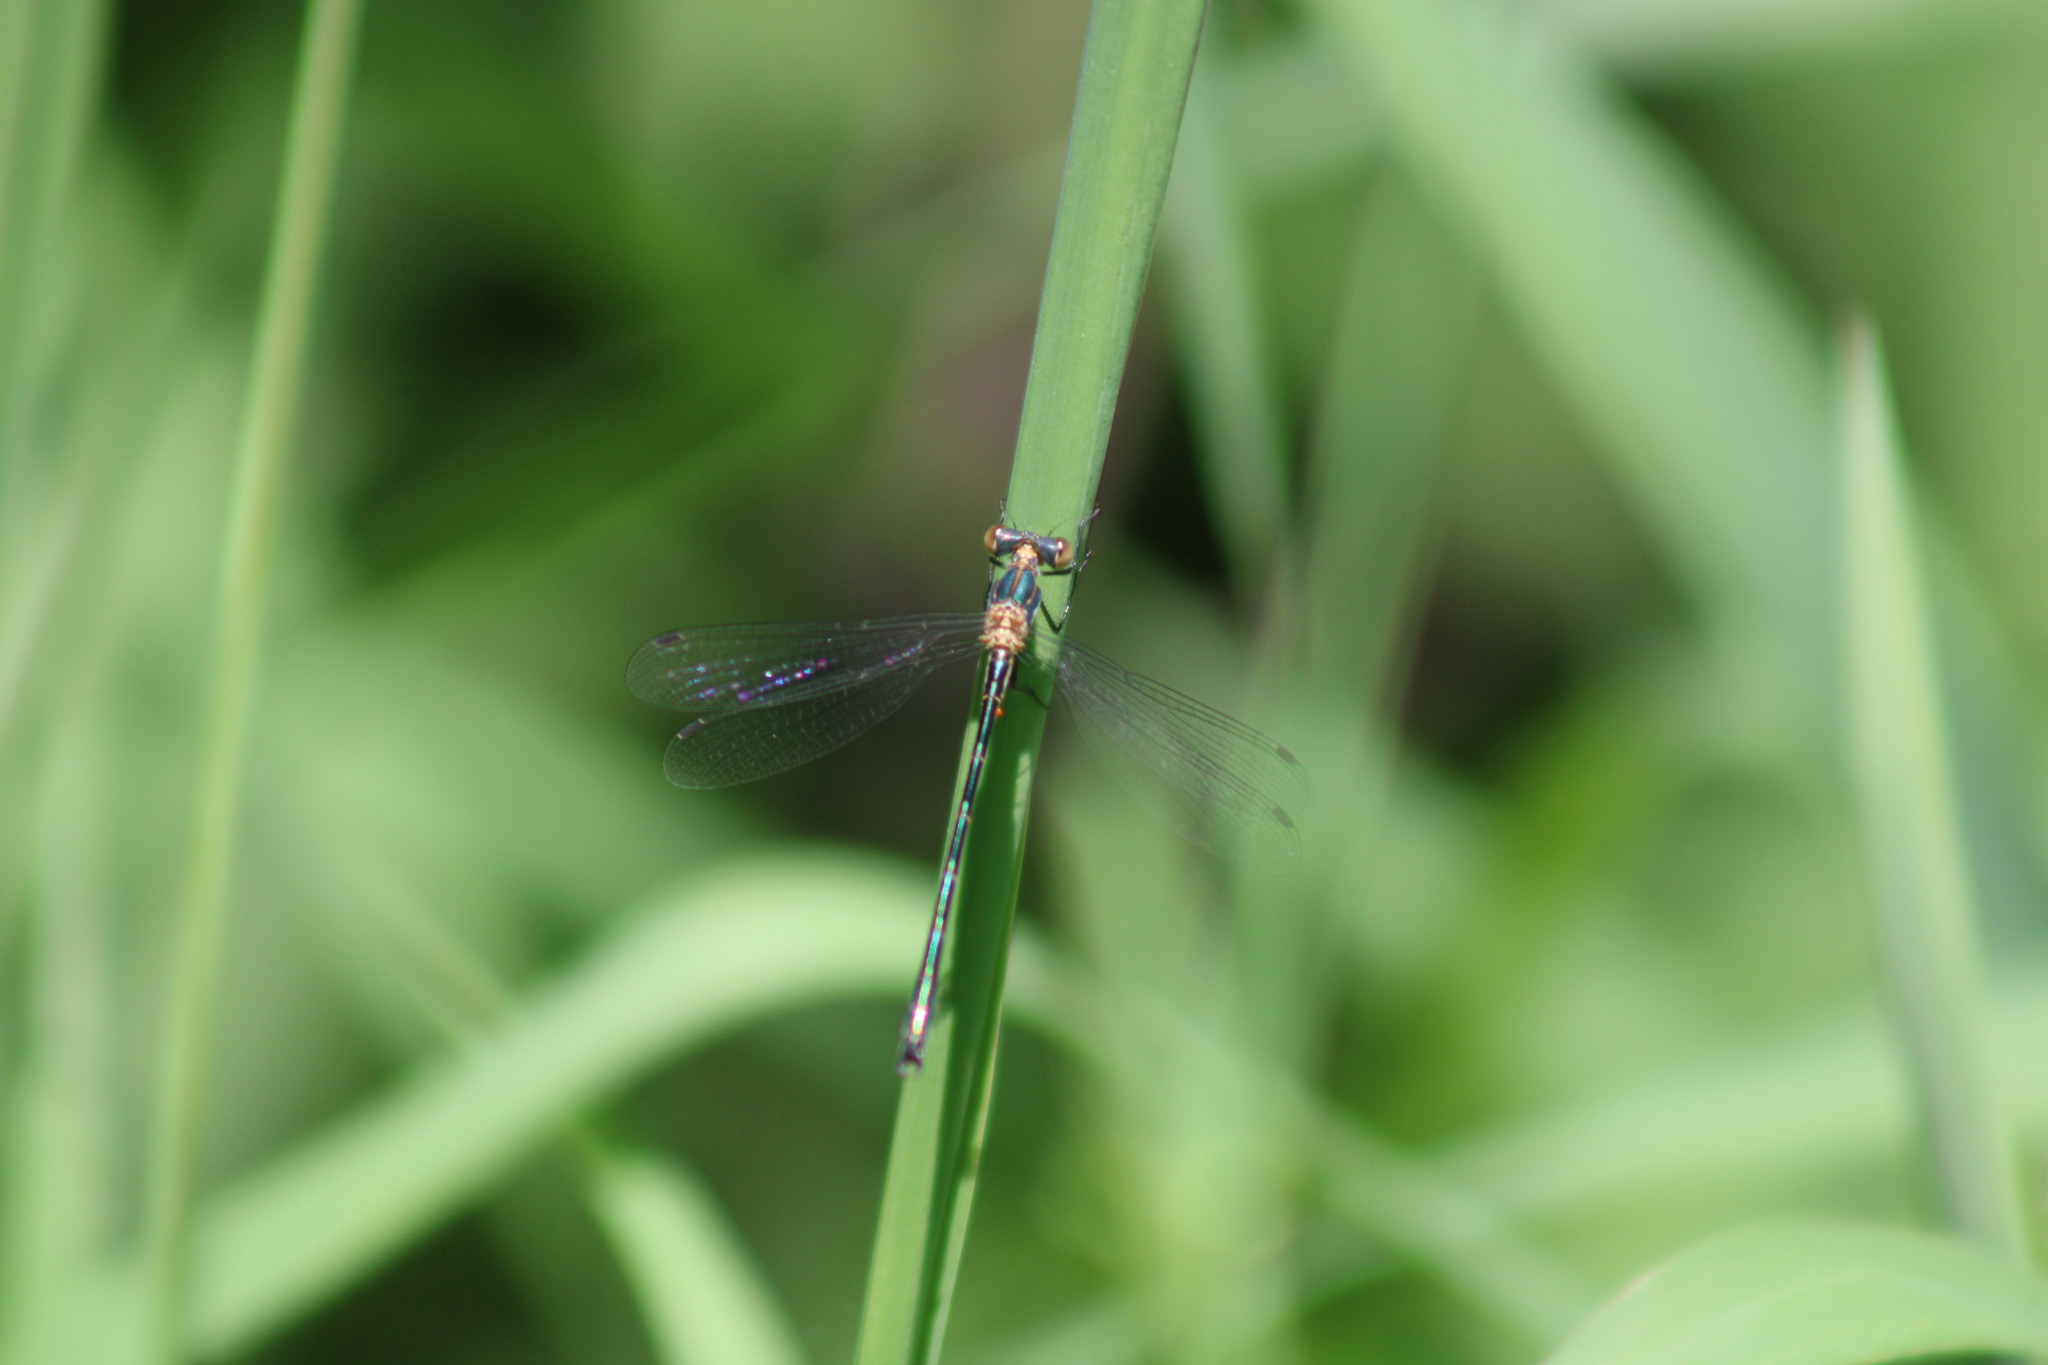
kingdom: Animalia
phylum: Arthropoda
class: Insecta
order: Odonata
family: Lestidae
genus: Lestes
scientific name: Lestes dryas
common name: Scarce emerald damselfly
